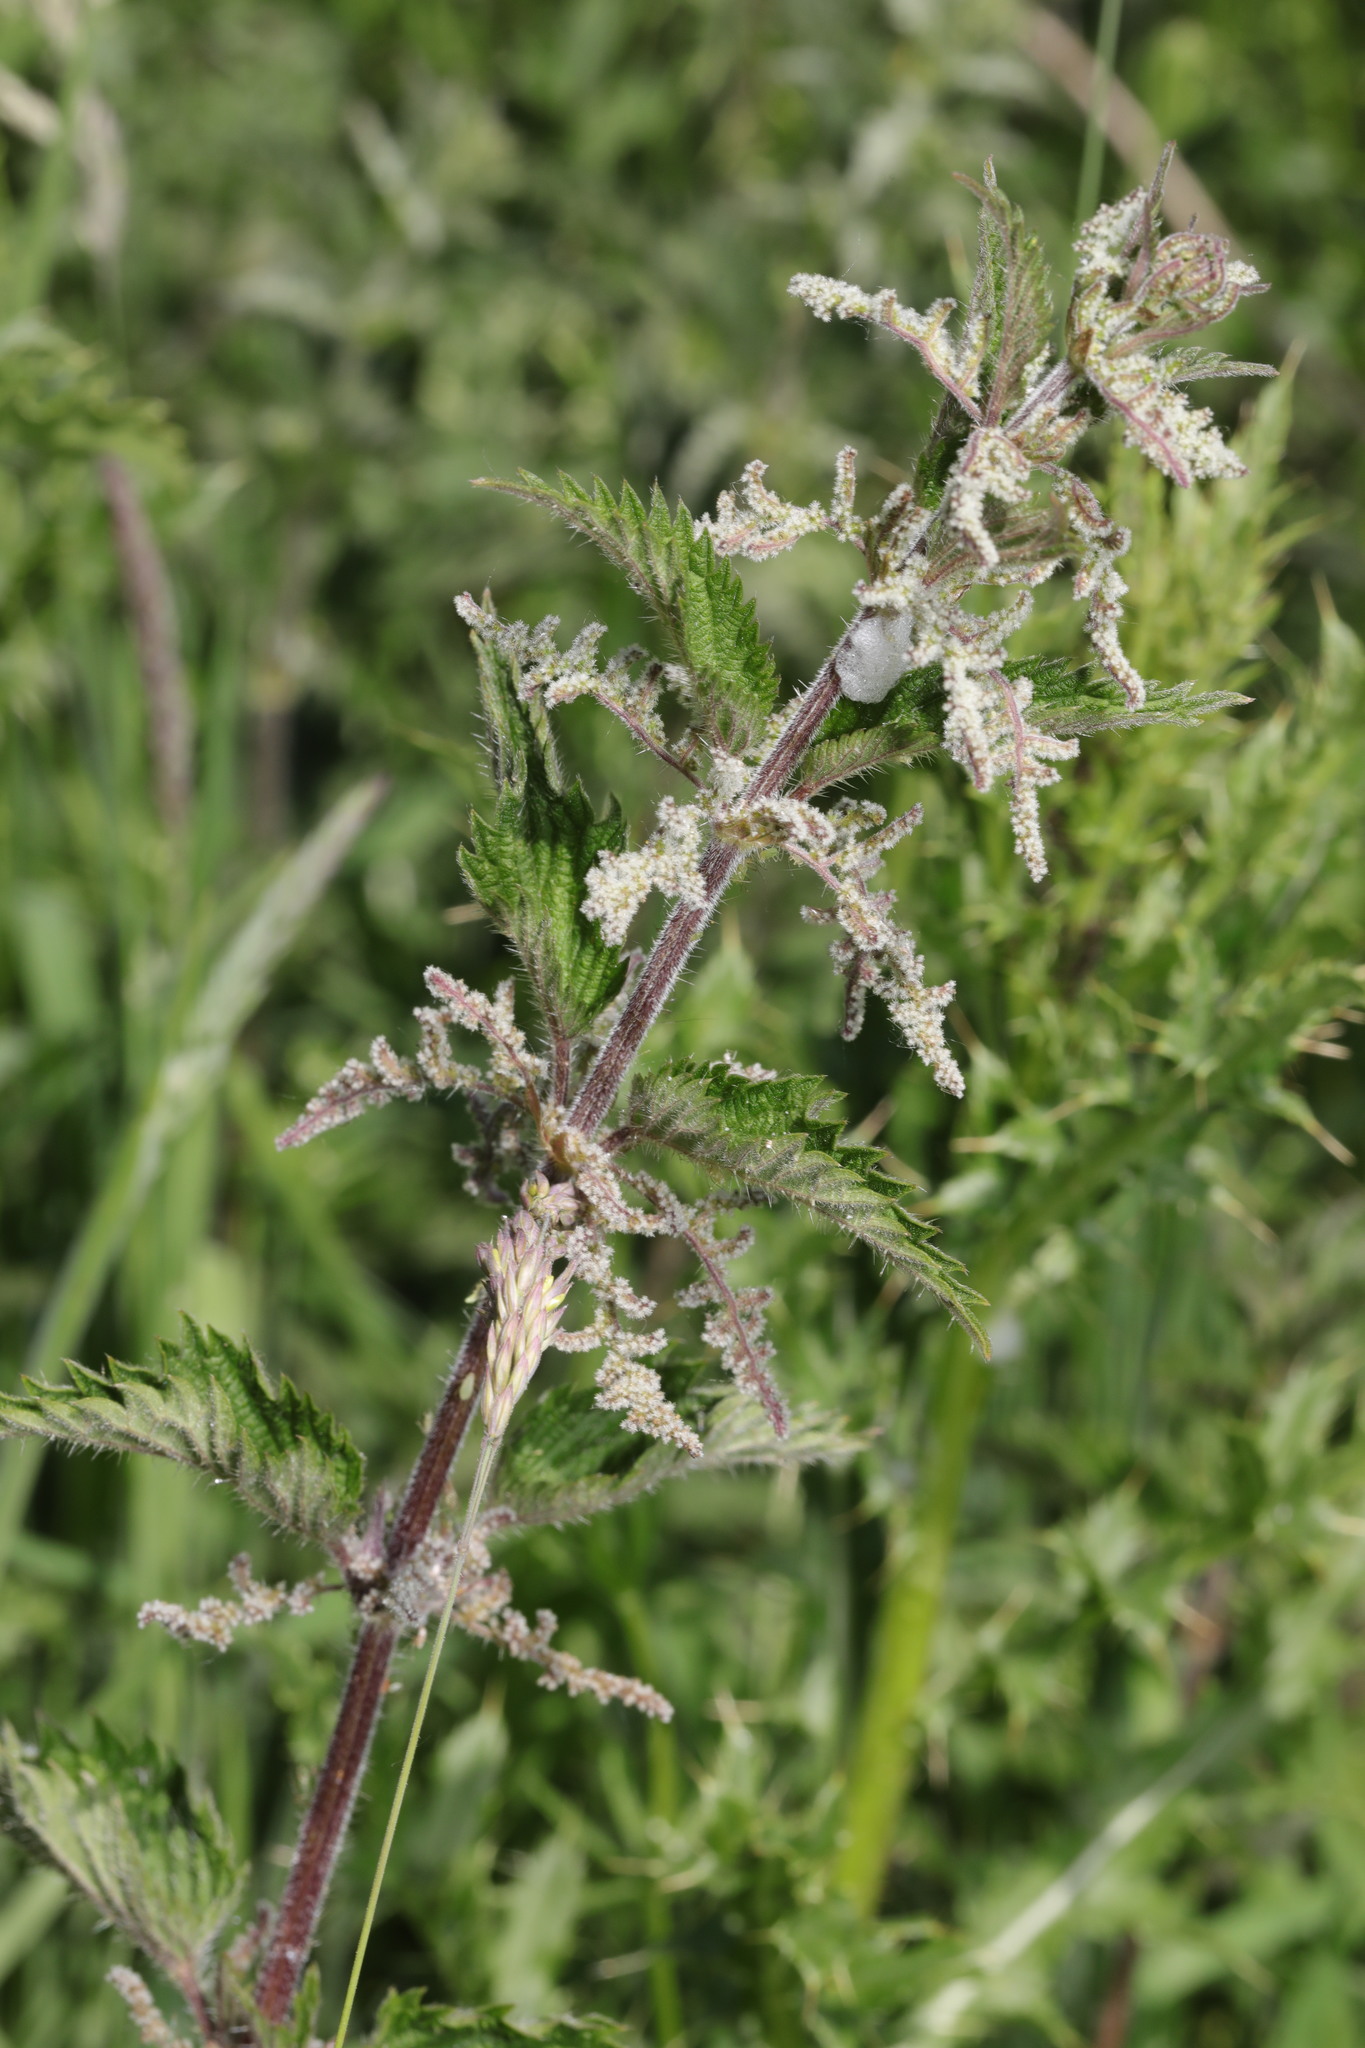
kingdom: Plantae
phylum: Tracheophyta
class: Magnoliopsida
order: Rosales
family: Urticaceae
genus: Urtica
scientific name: Urtica dioica
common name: Common nettle
